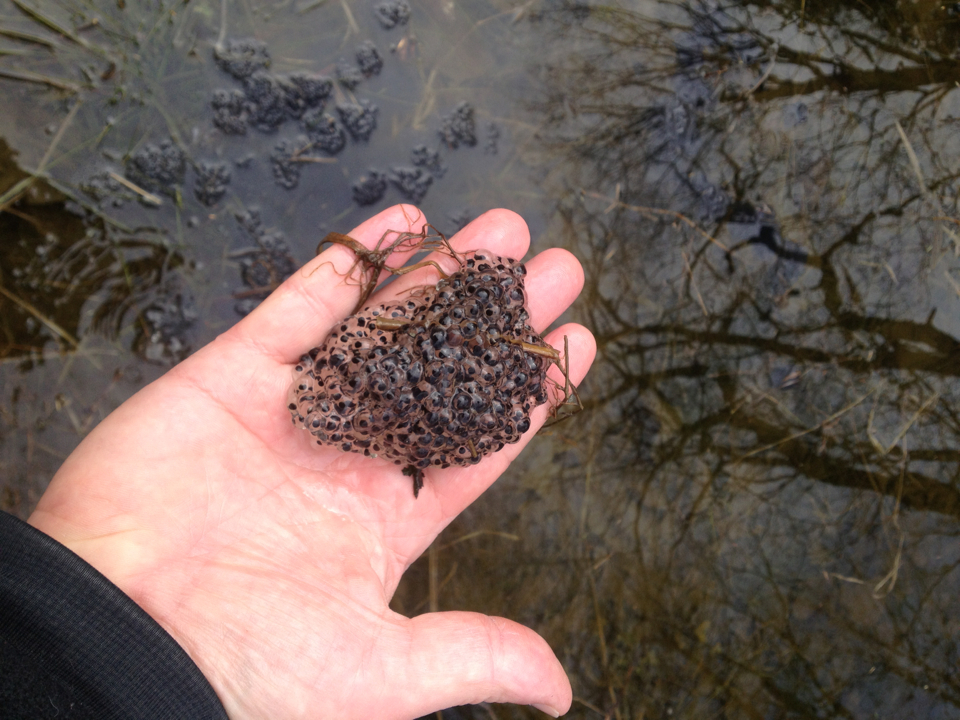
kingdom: Animalia
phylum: Chordata
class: Amphibia
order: Anura
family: Ranidae
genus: Lithobates
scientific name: Lithobates sylvaticus
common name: Wood frog
